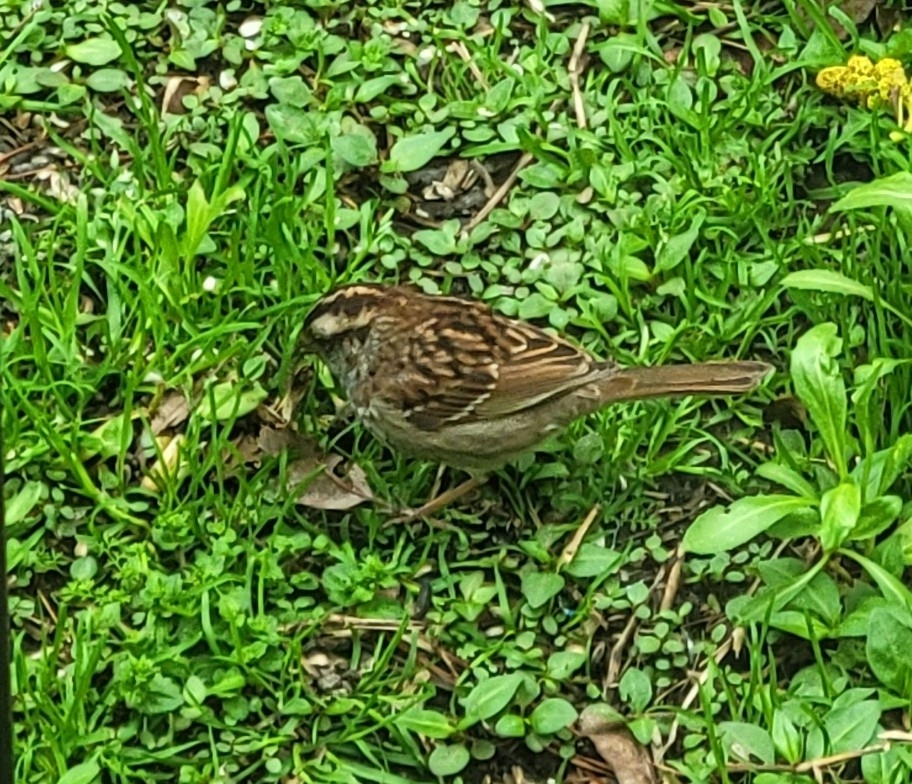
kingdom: Animalia
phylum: Chordata
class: Aves
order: Passeriformes
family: Passerellidae
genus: Zonotrichia
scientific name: Zonotrichia albicollis
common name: White-throated sparrow
